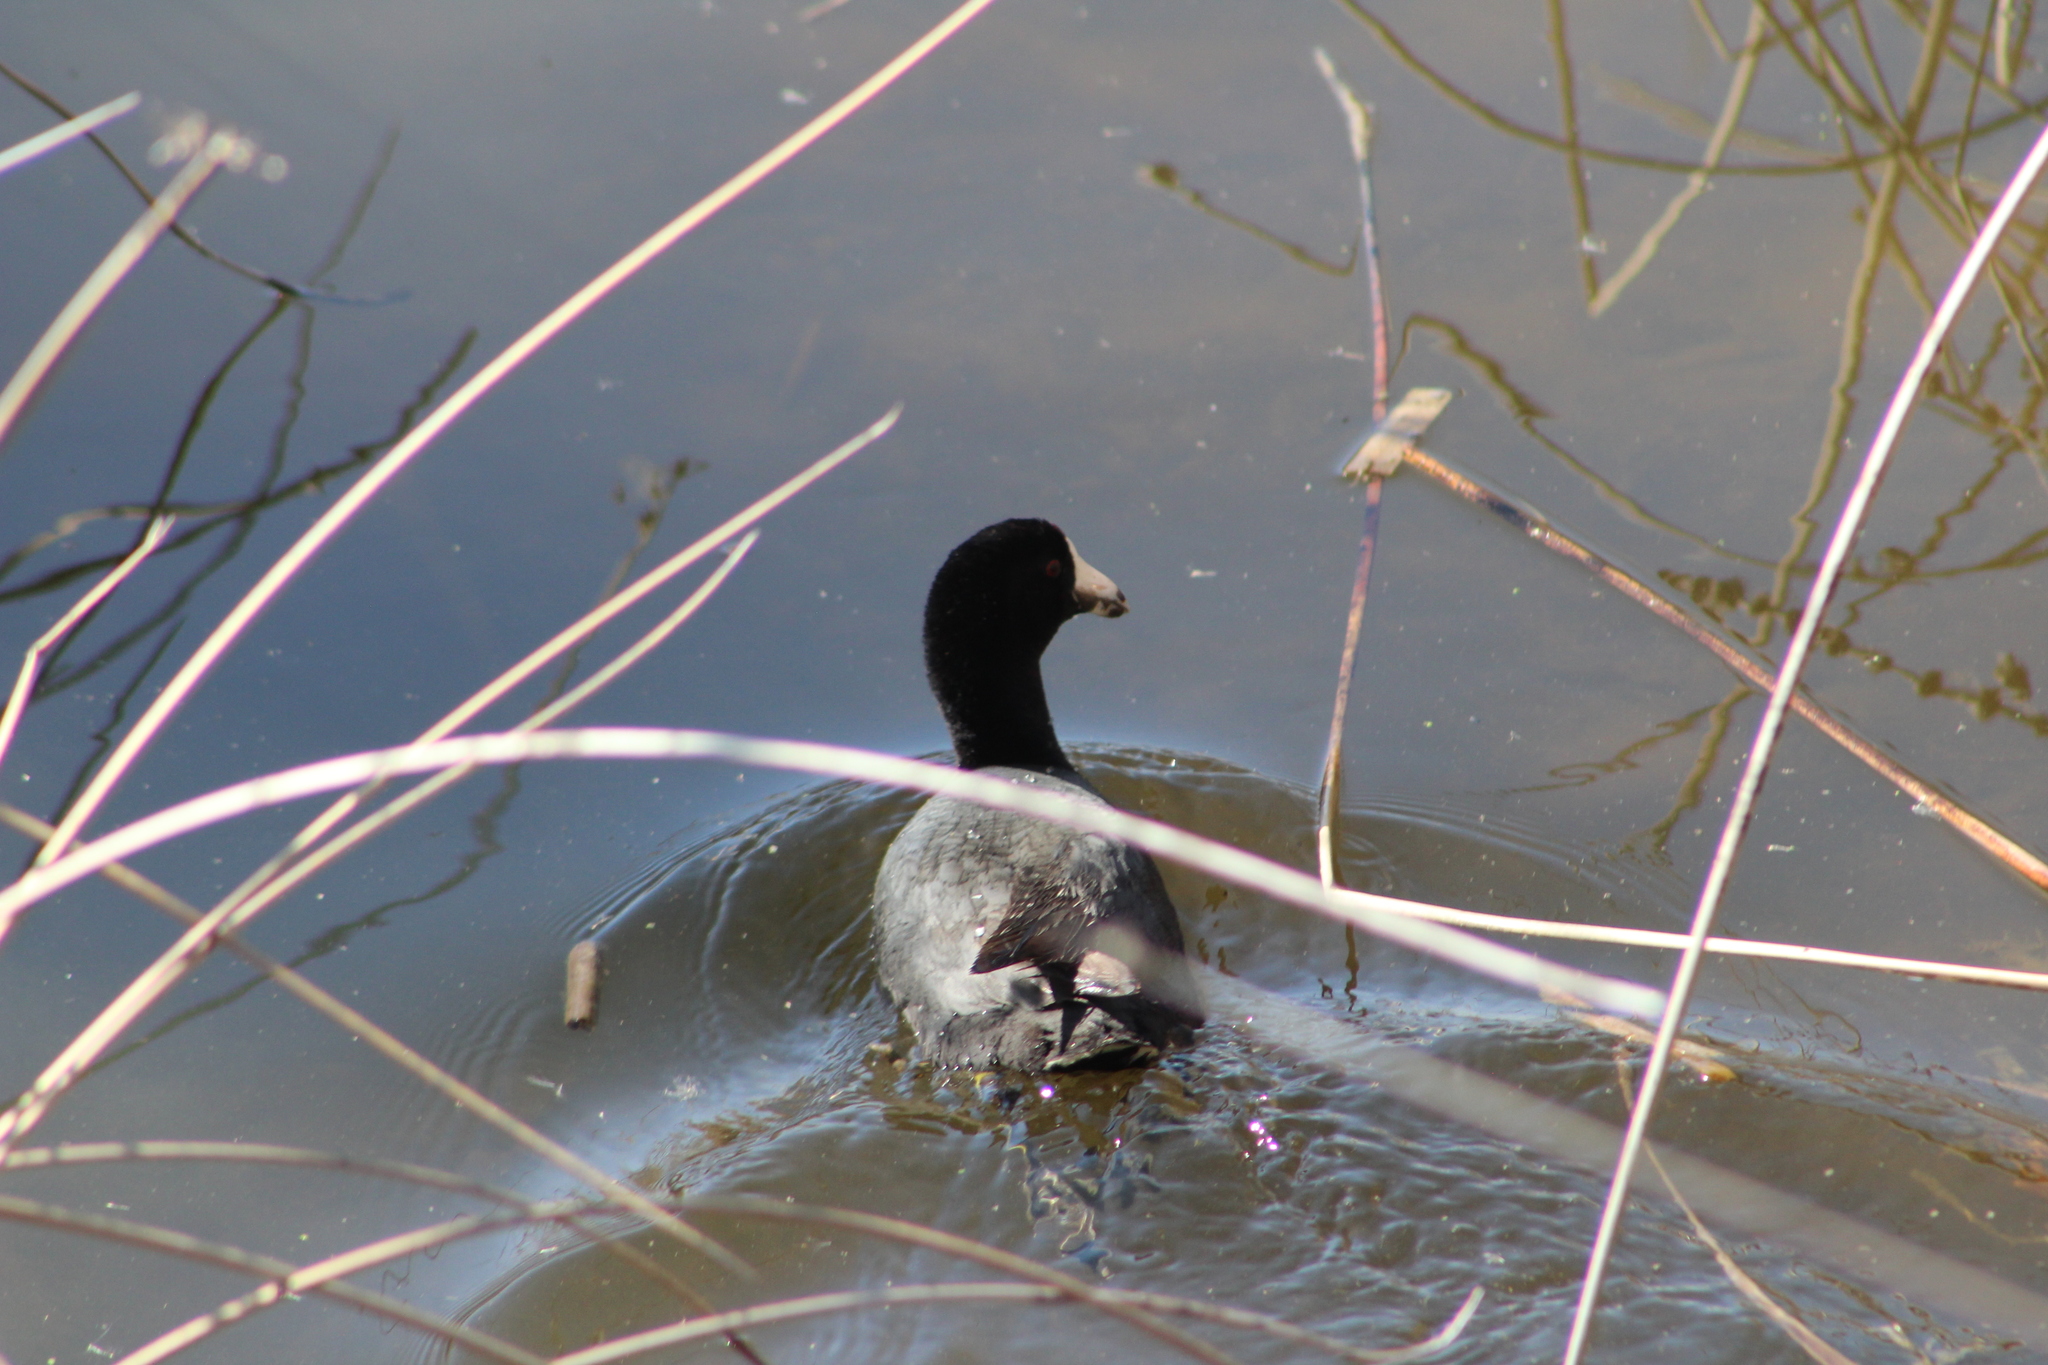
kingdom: Animalia
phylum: Chordata
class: Aves
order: Gruiformes
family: Rallidae
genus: Fulica
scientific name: Fulica americana
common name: American coot
